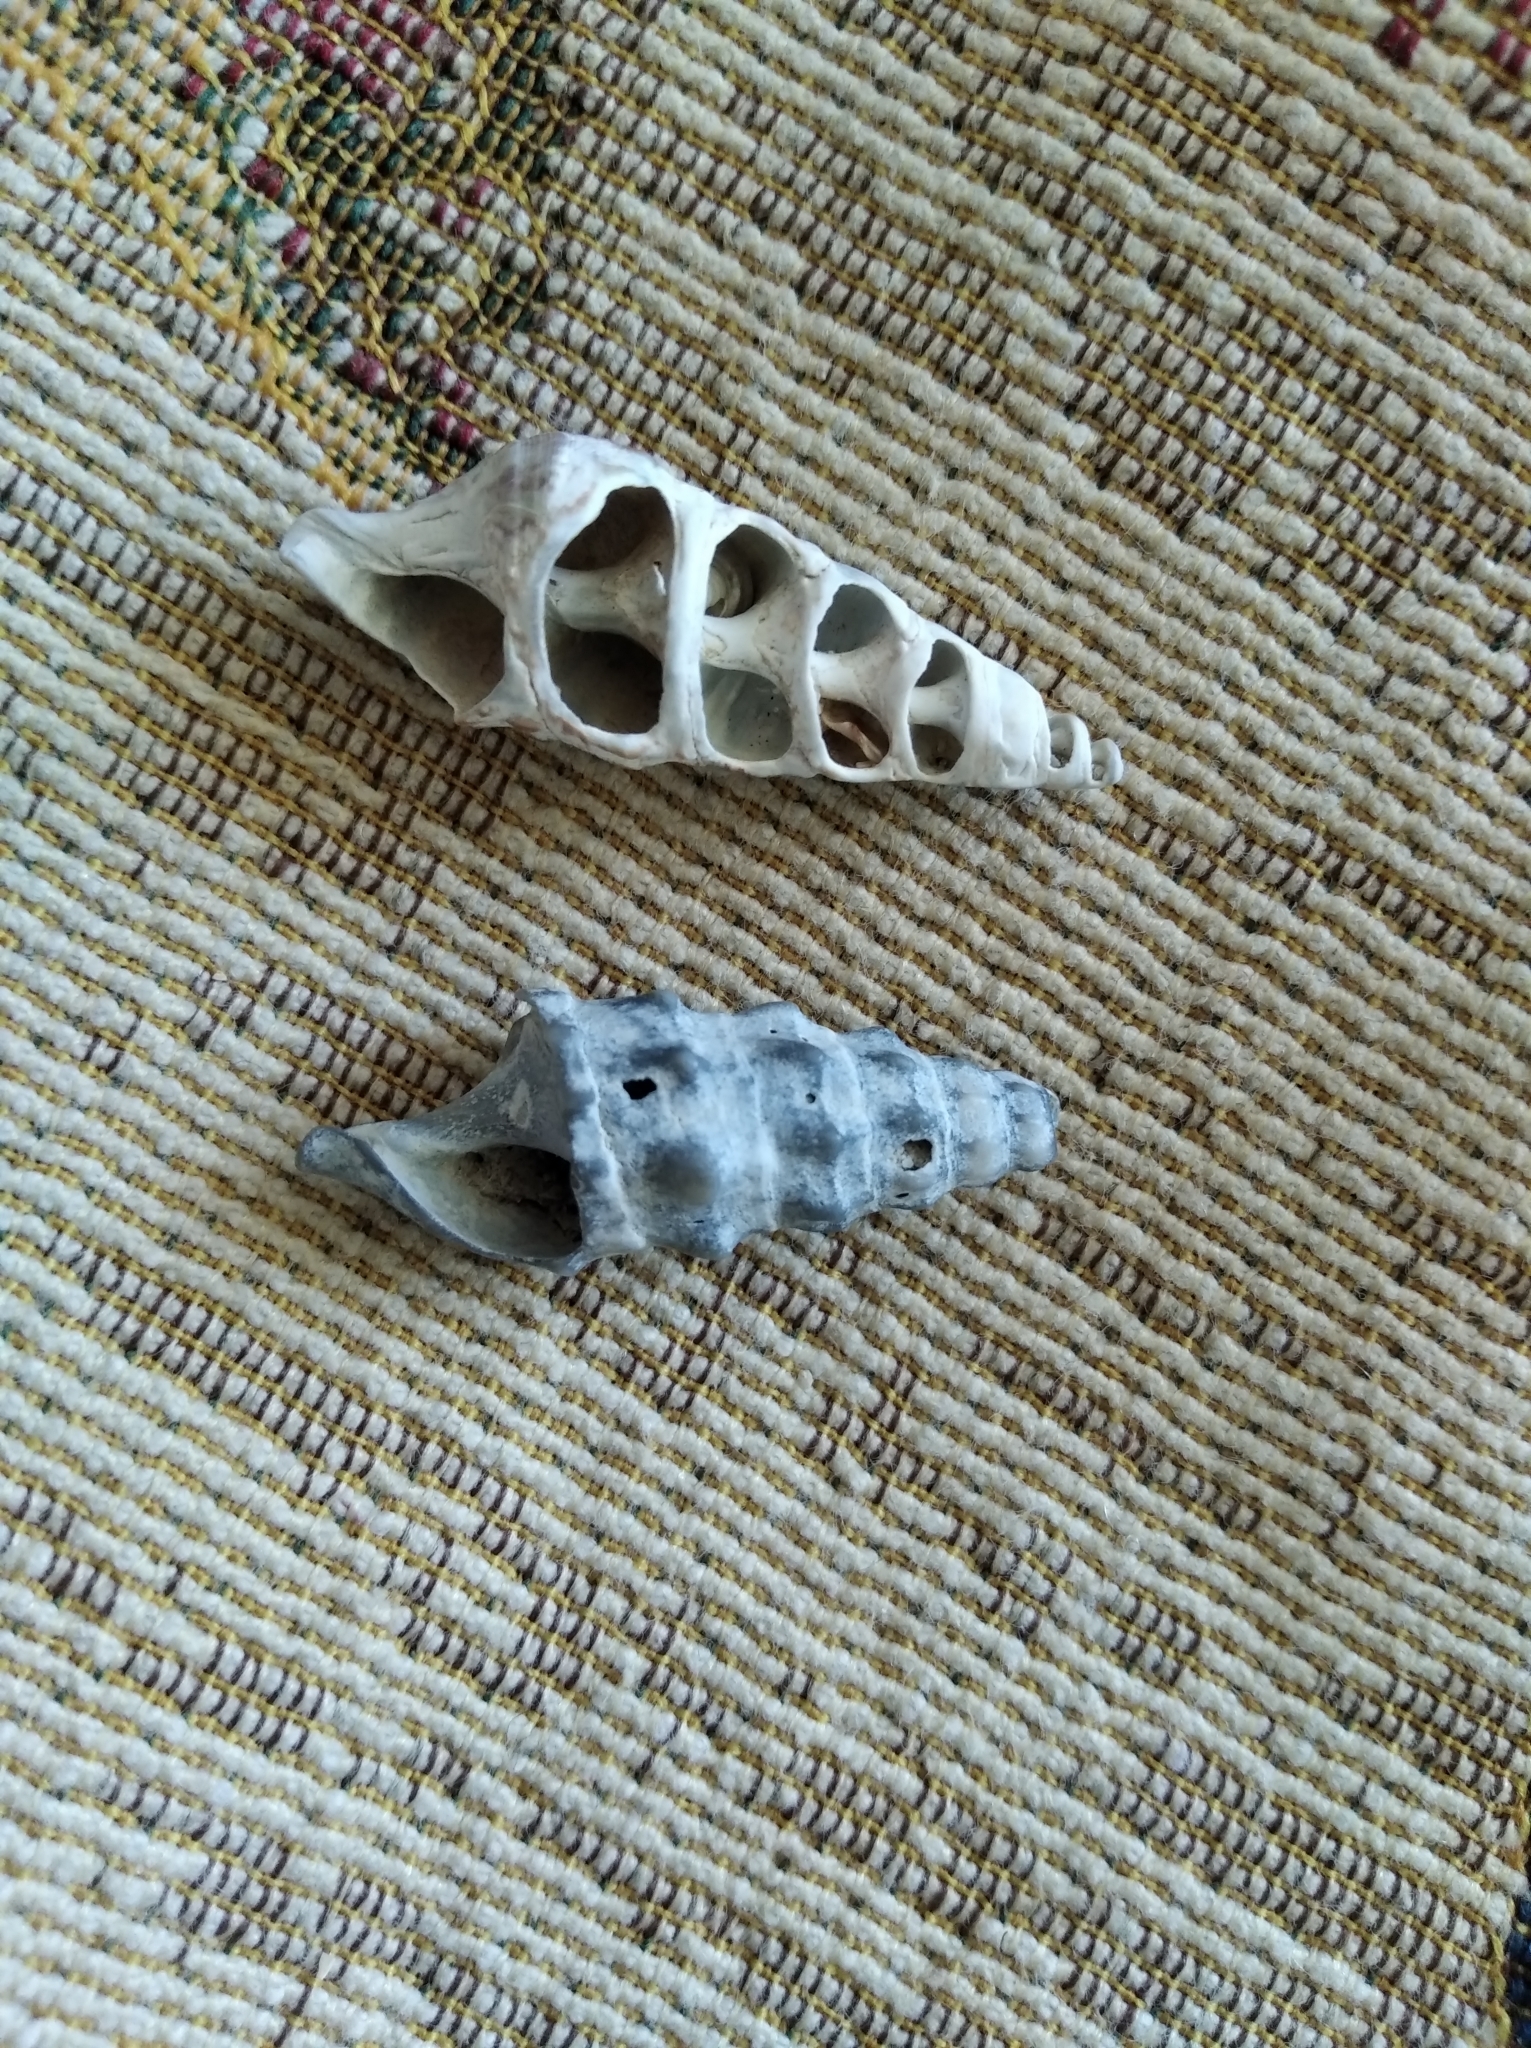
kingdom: Animalia
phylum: Mollusca
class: Gastropoda
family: Cerithiidae
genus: Cerithium
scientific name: Cerithium vulgatum
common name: European cerith
